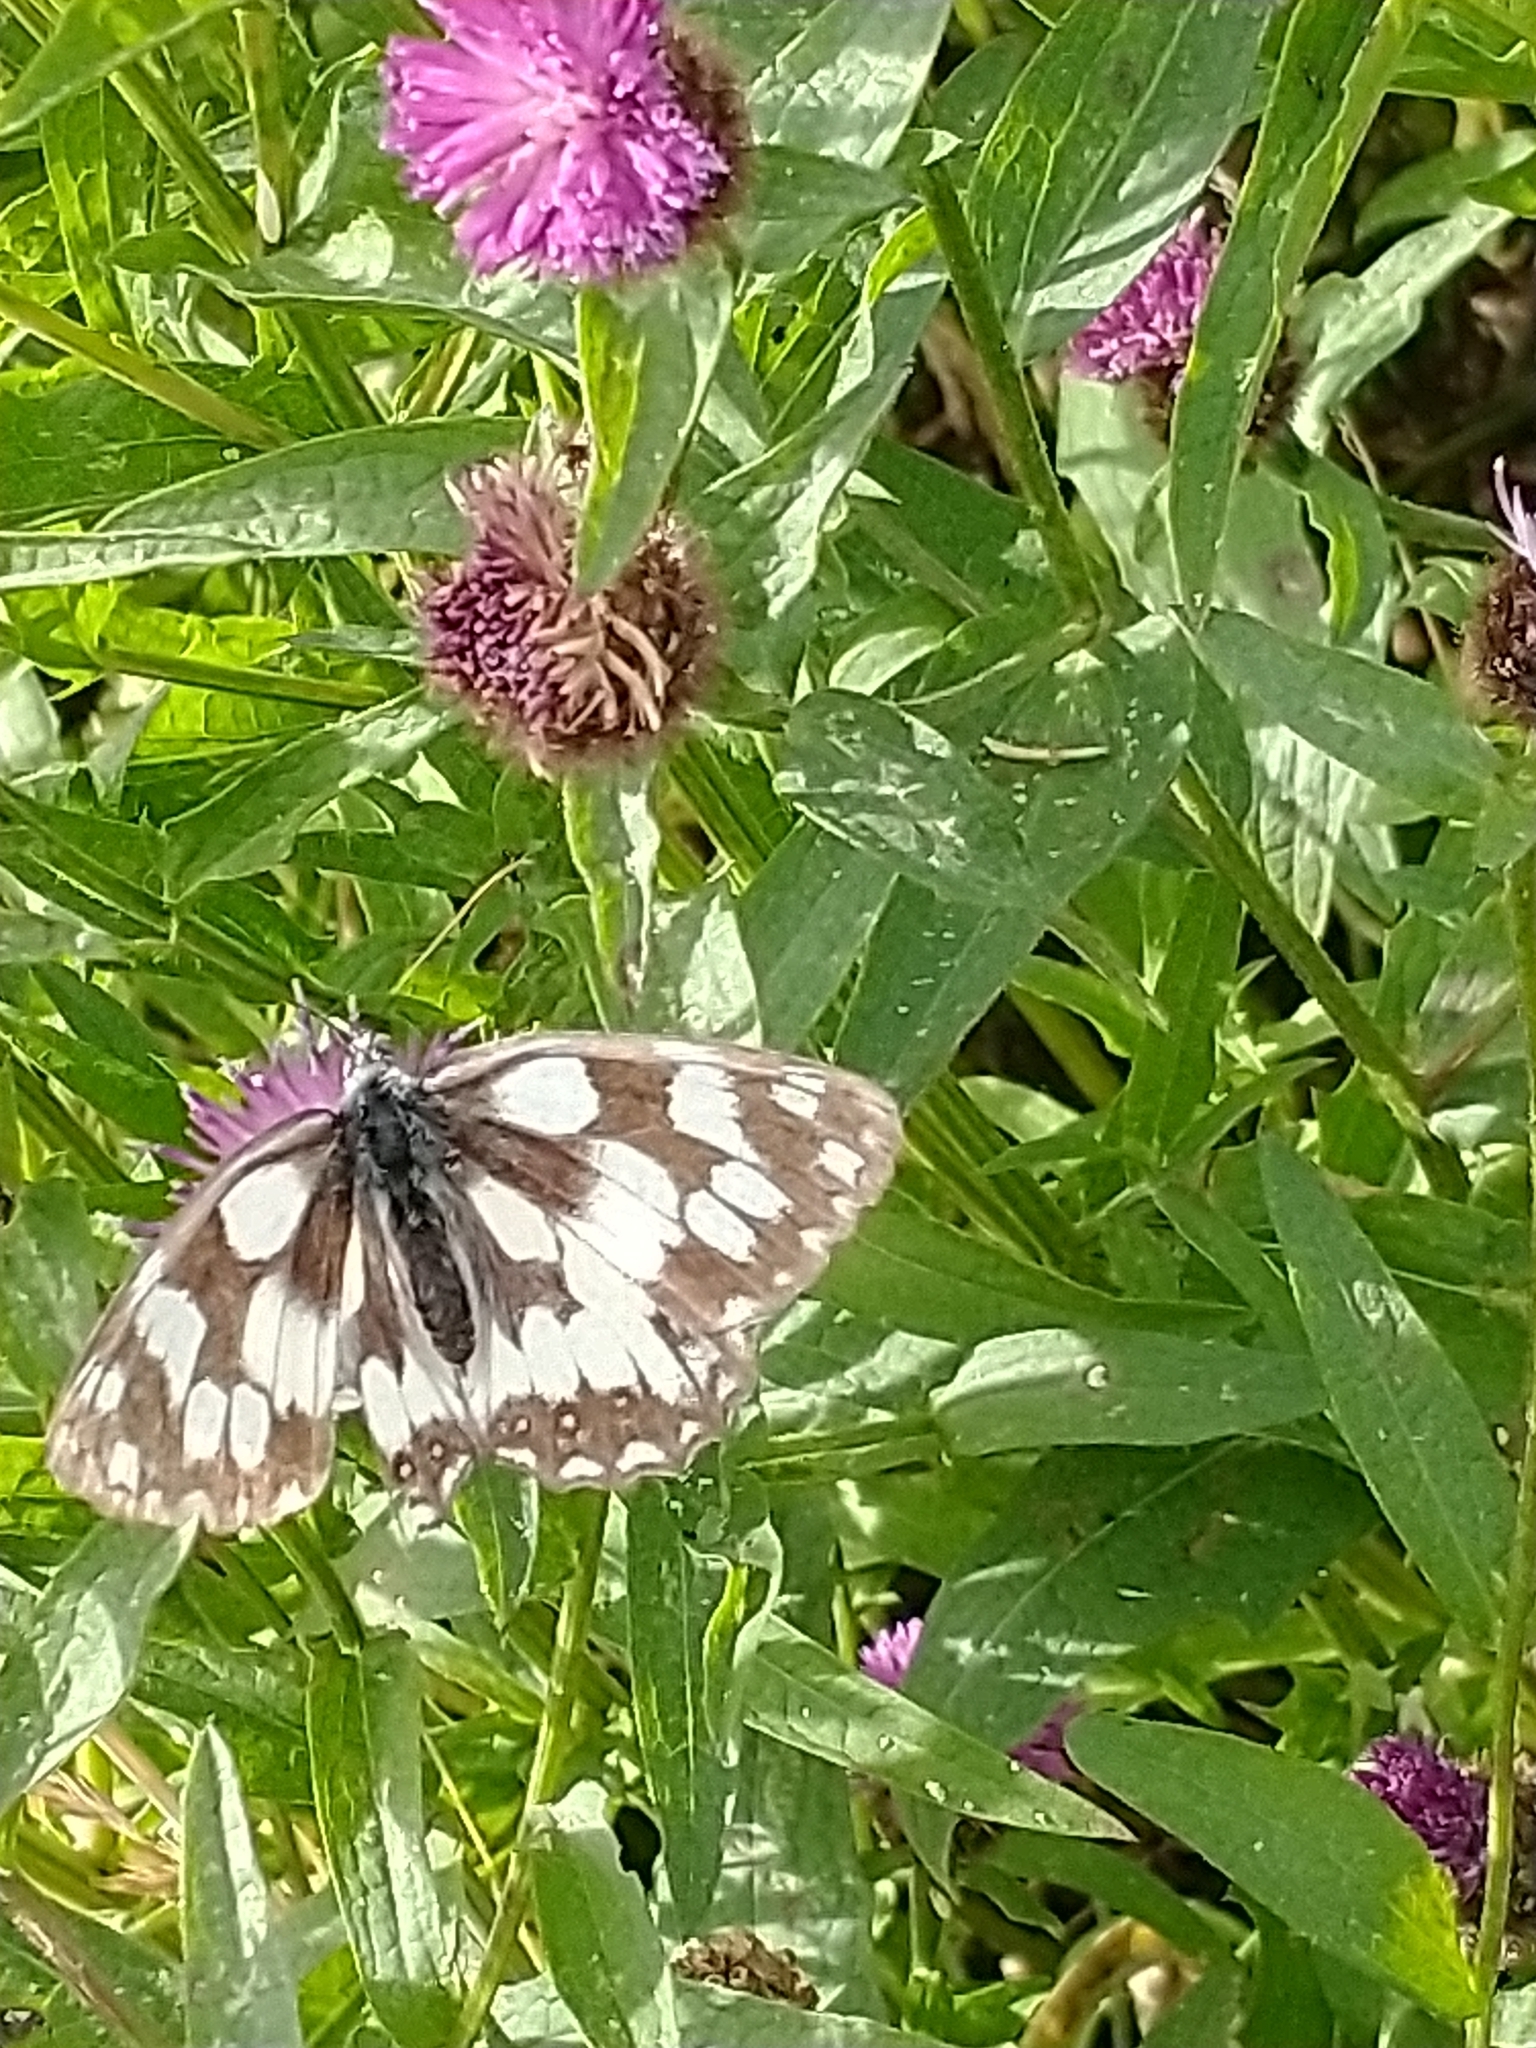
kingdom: Animalia
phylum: Arthropoda
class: Insecta
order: Lepidoptera
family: Nymphalidae
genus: Melanargia
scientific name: Melanargia galathea
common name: Marbled white
